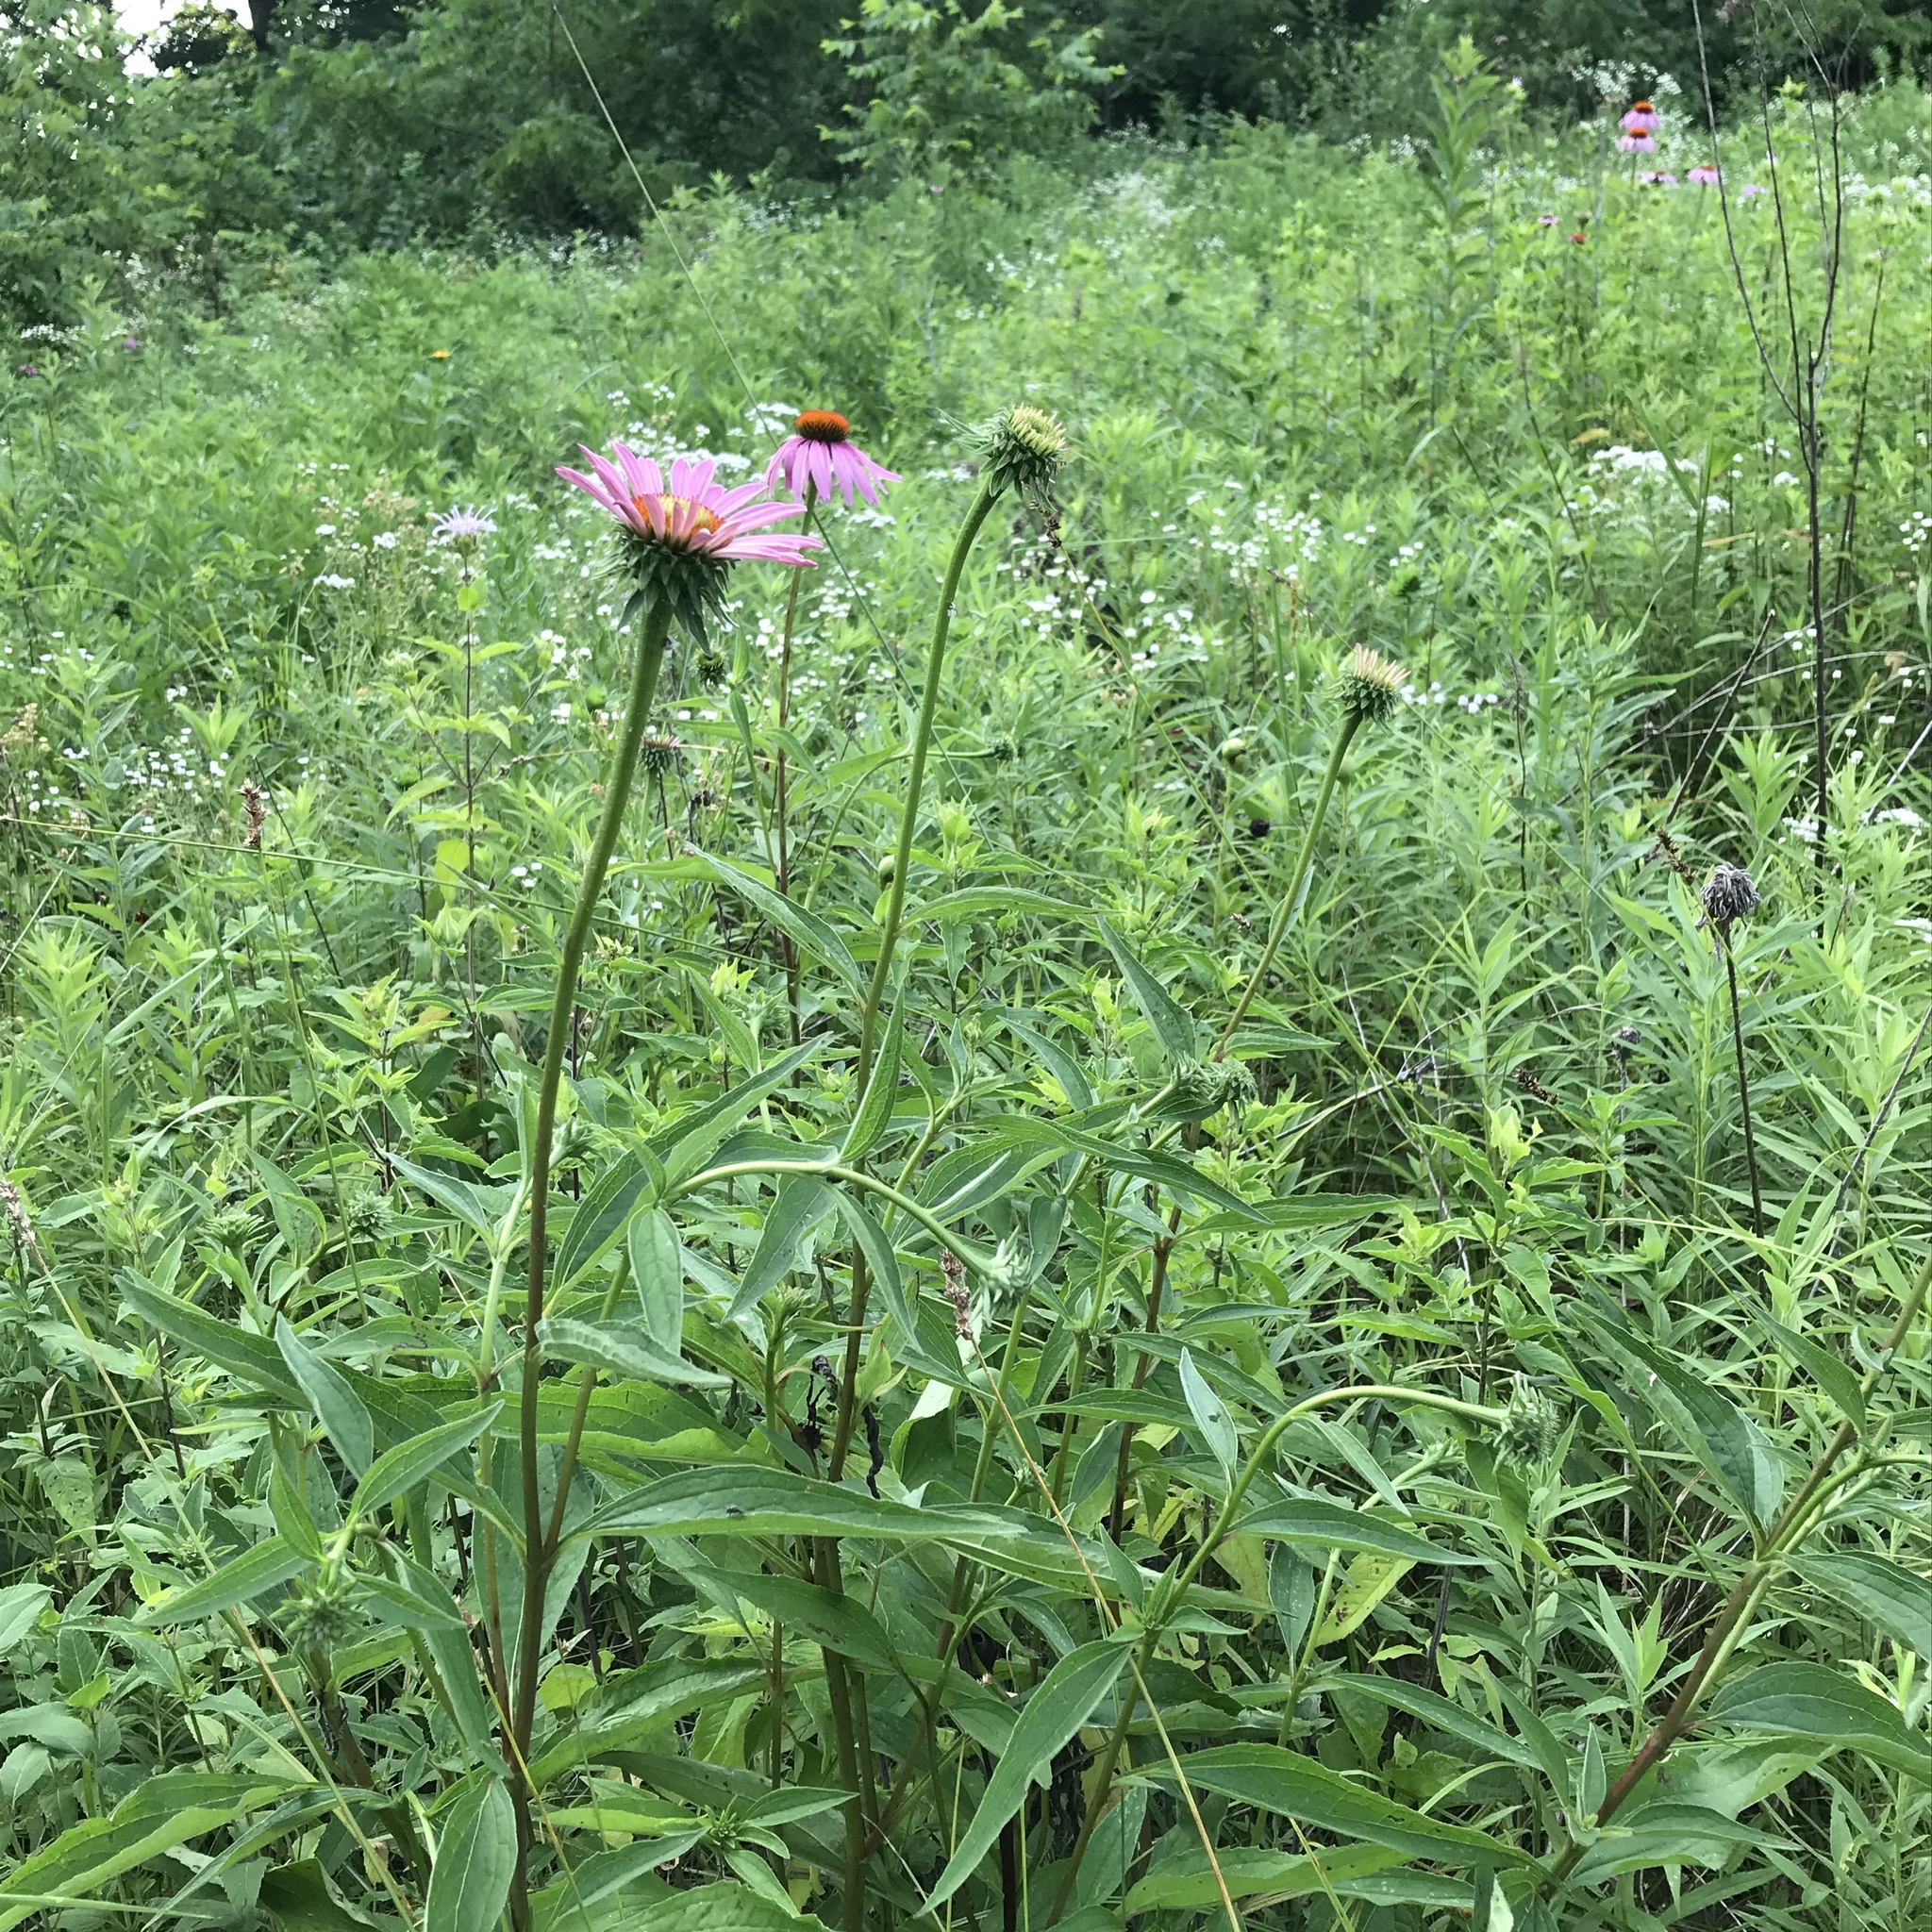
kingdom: Plantae
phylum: Tracheophyta
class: Magnoliopsida
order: Asterales
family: Asteraceae
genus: Echinacea
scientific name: Echinacea purpurea
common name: Broad-leaved purple coneflower
